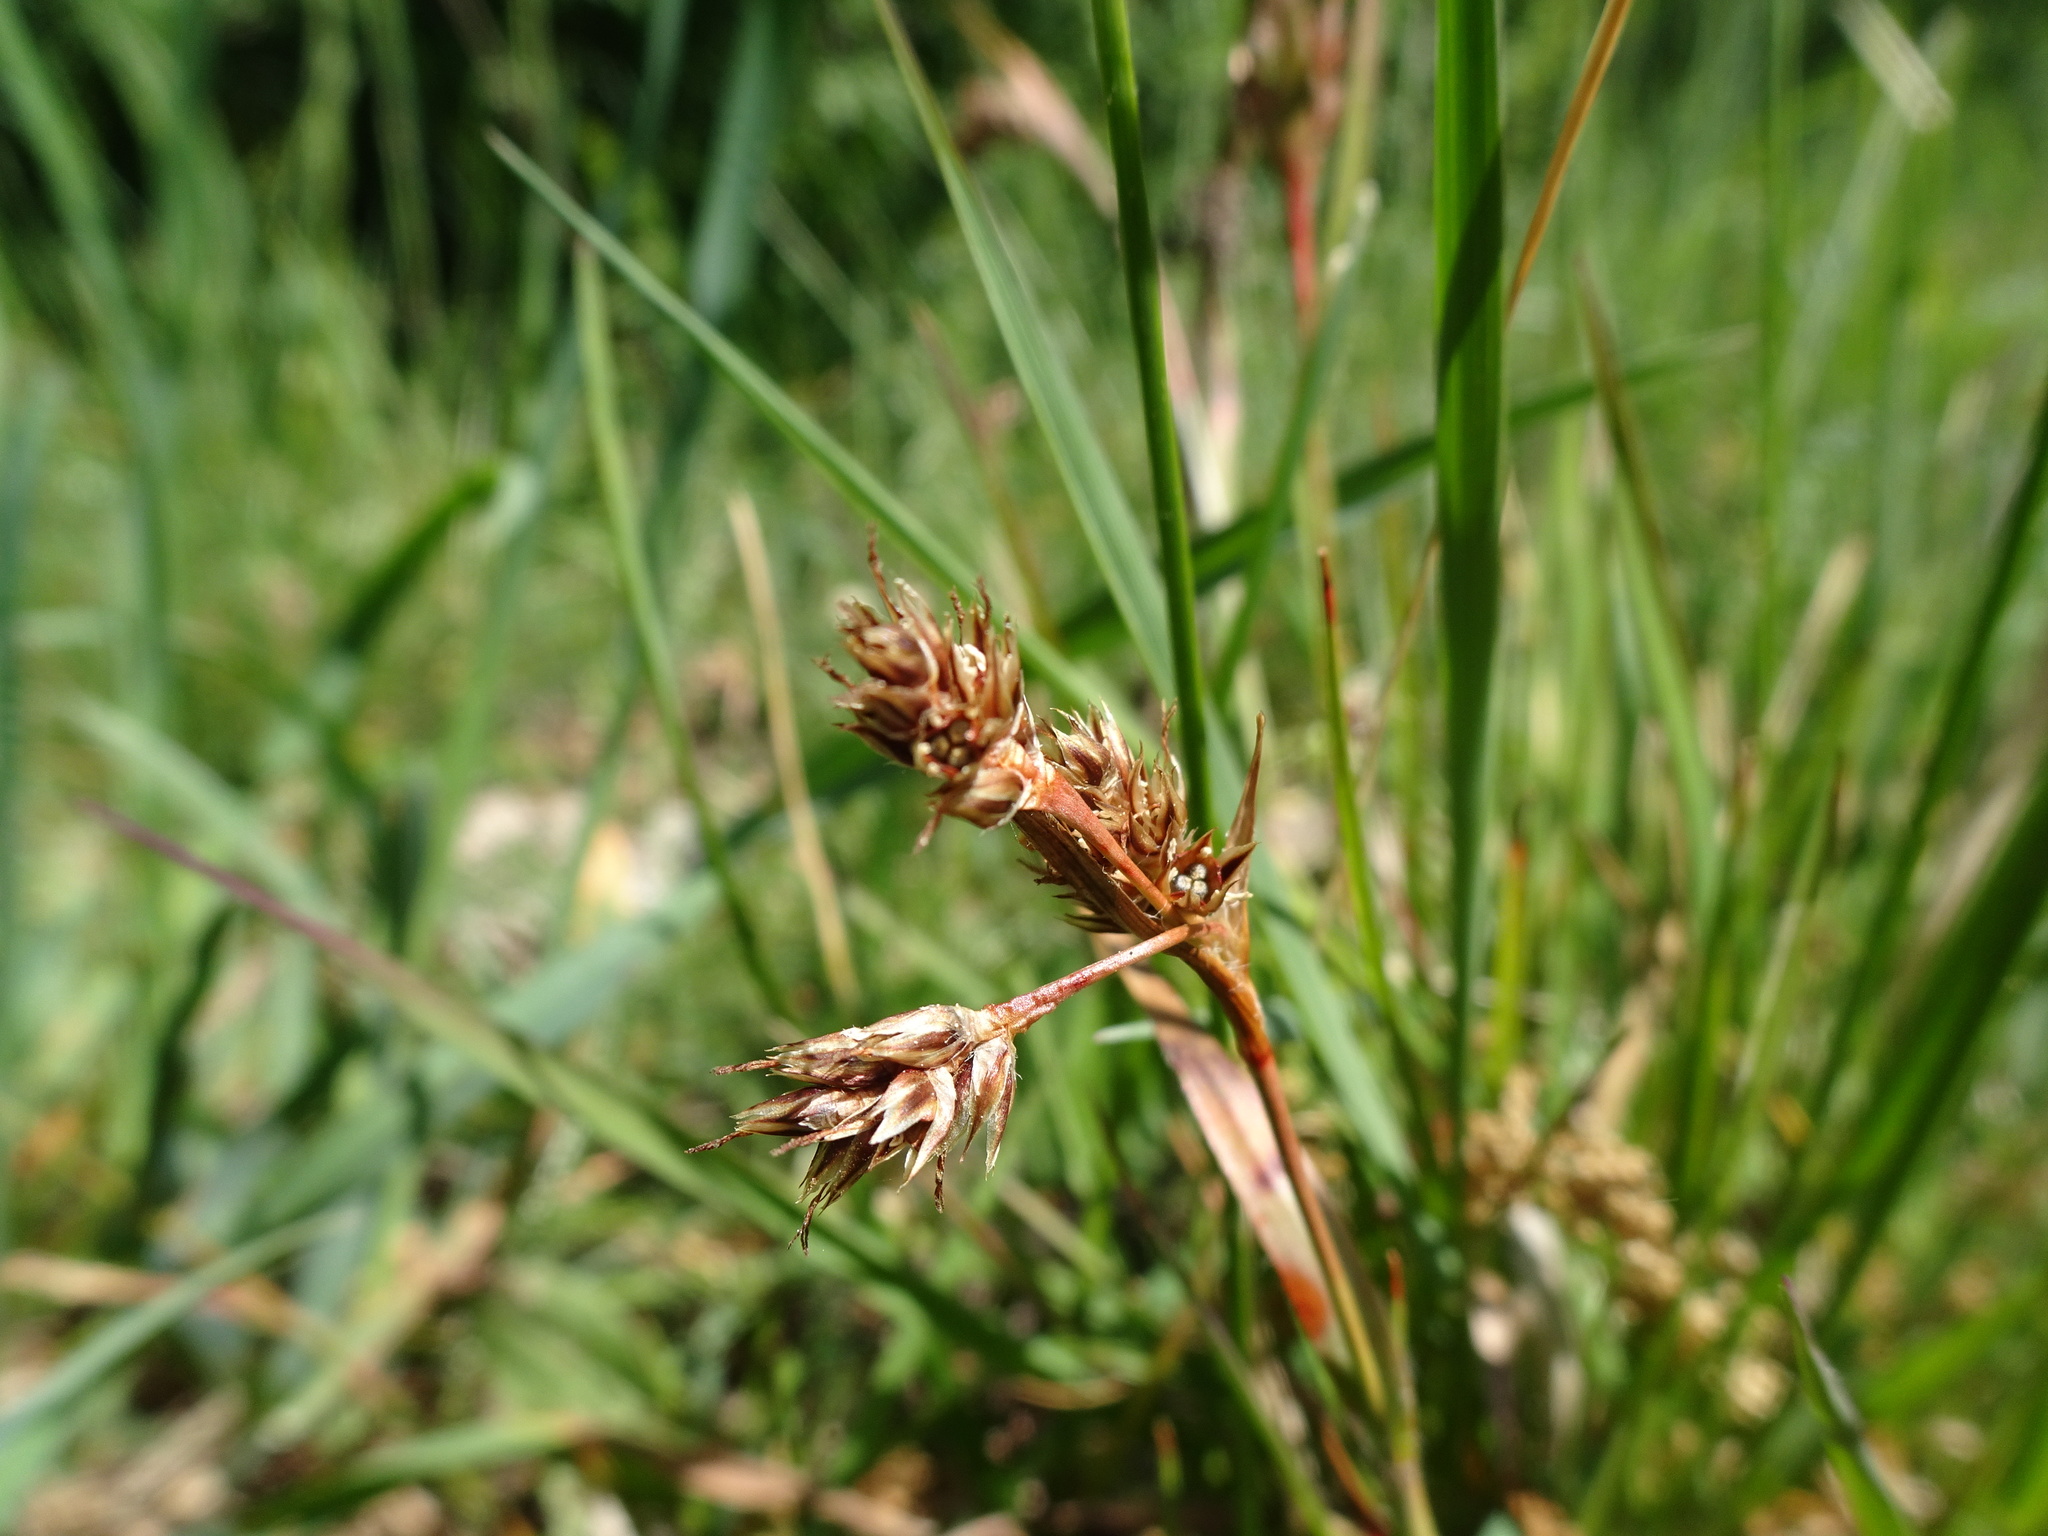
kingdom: Plantae
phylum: Tracheophyta
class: Liliopsida
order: Poales
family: Juncaceae
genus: Luzula
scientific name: Luzula campestris
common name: Field wood-rush
